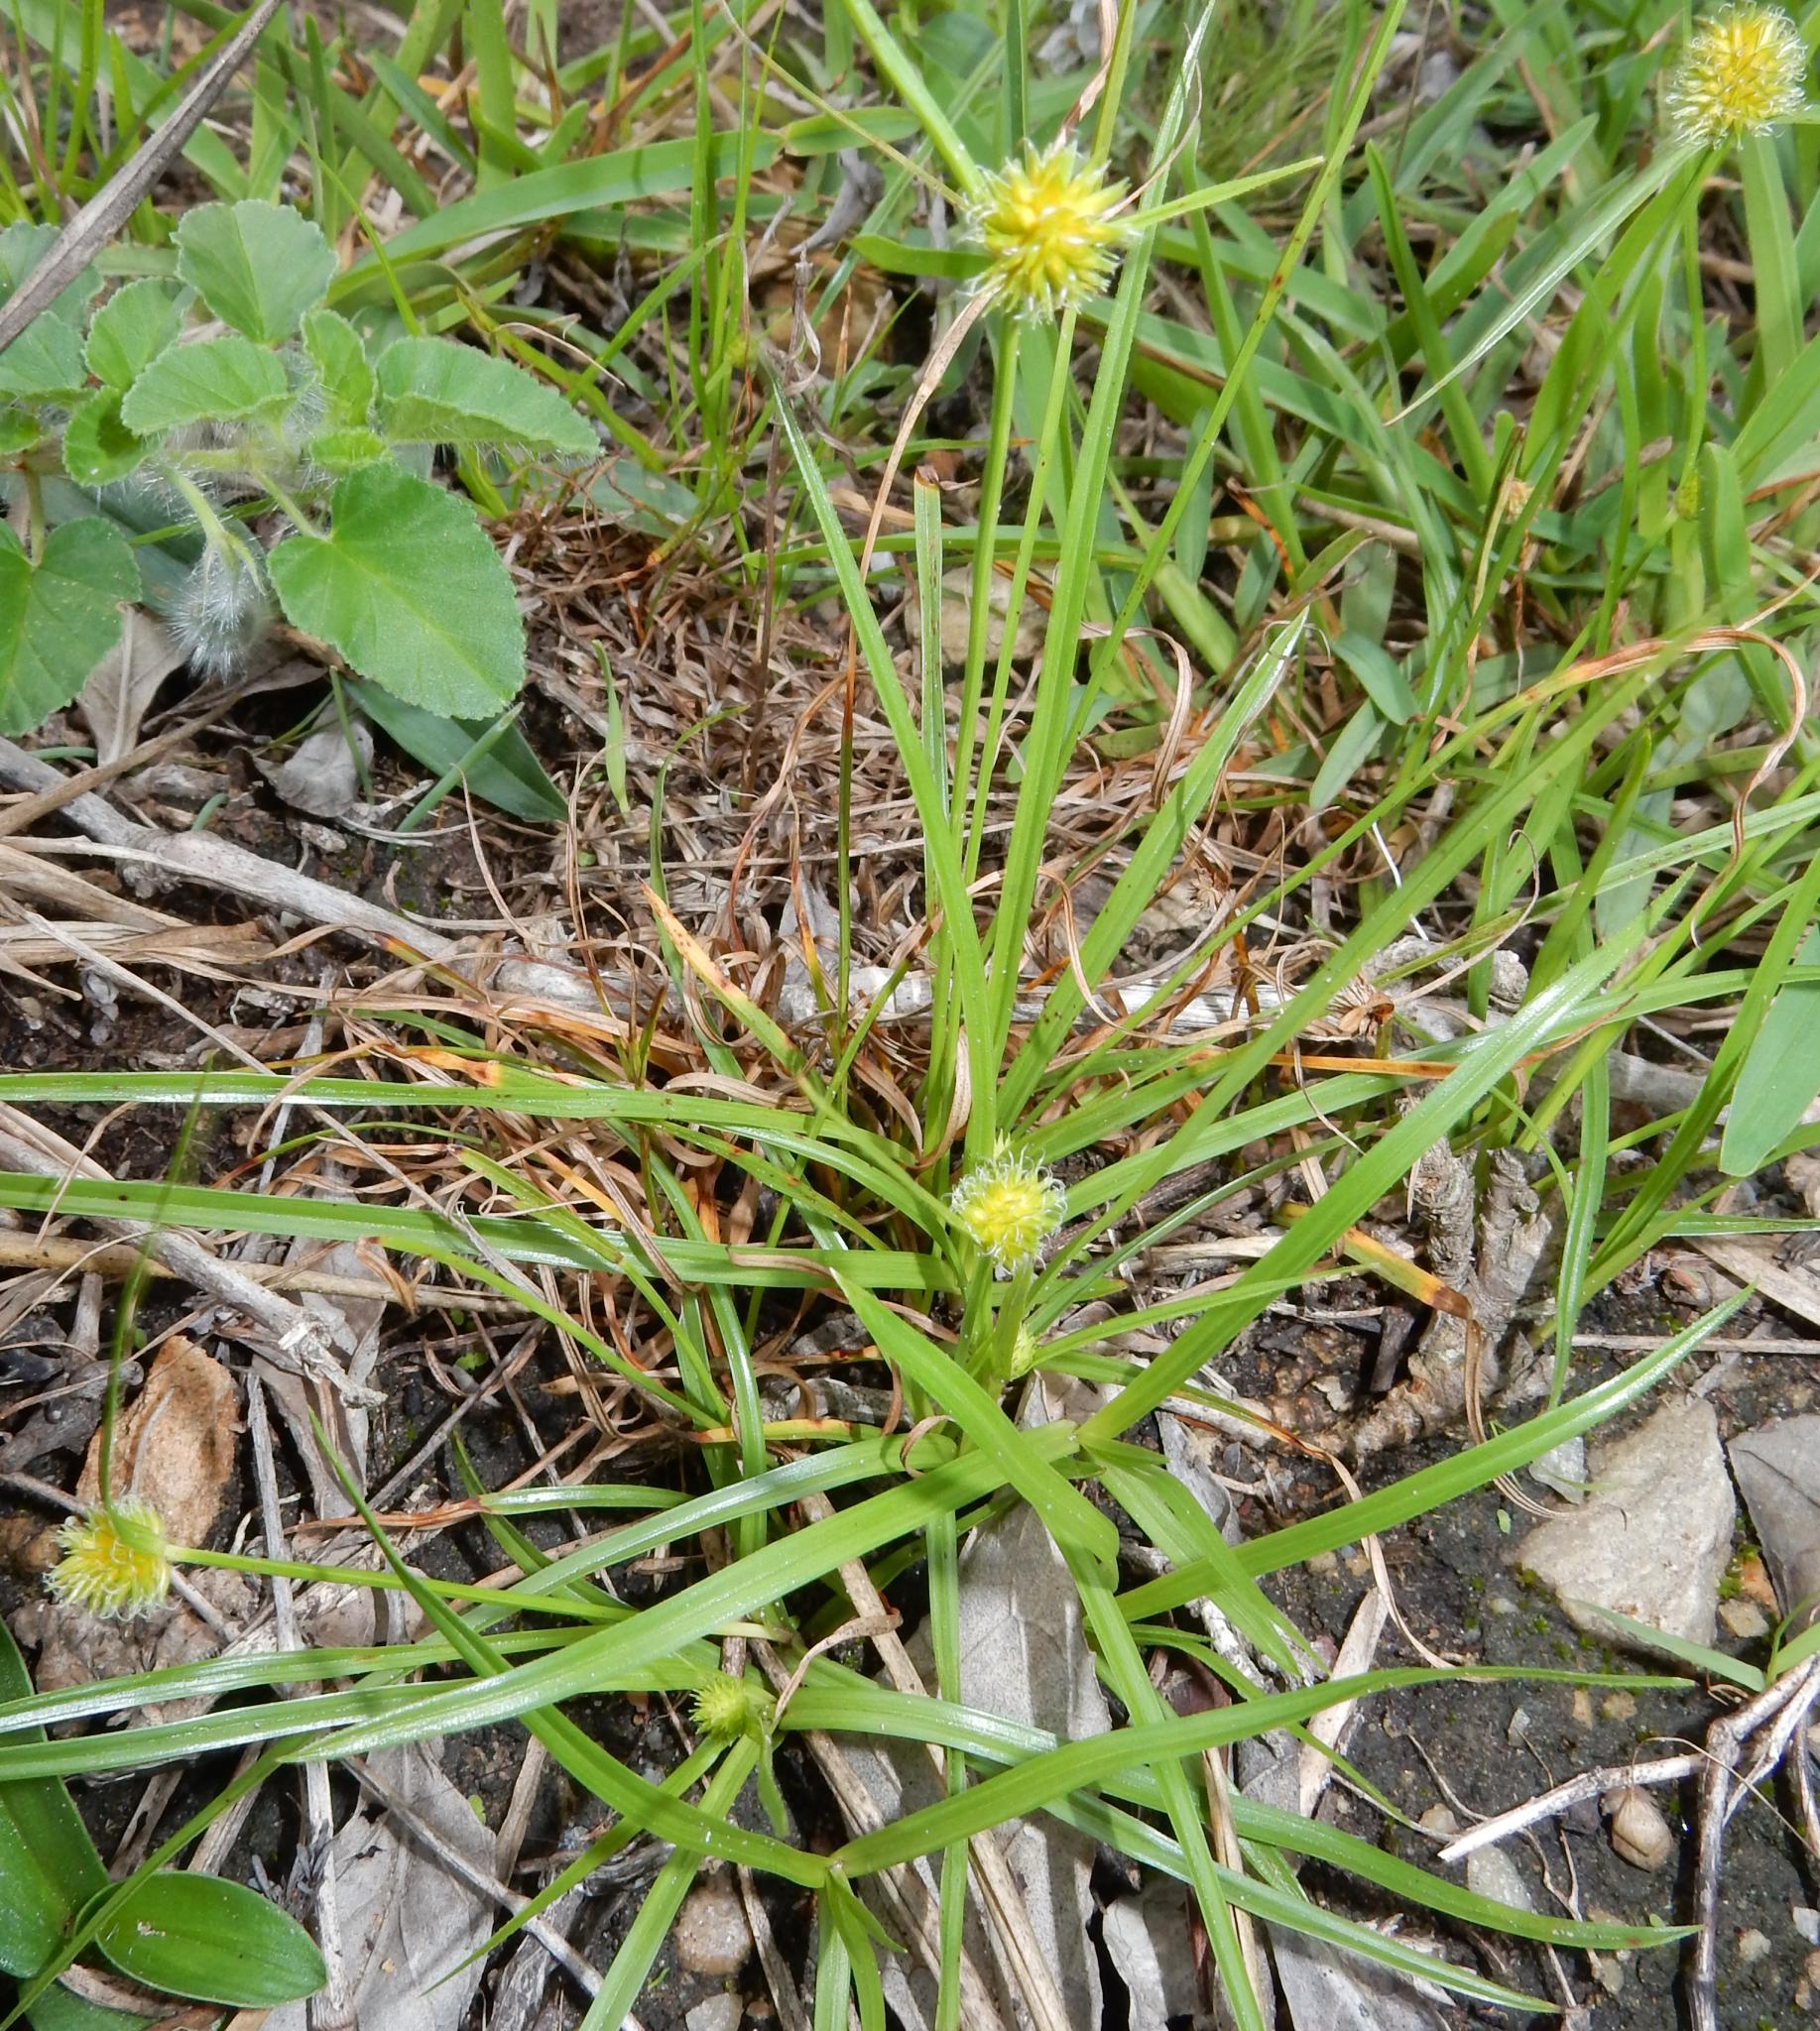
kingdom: Plantae
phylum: Tracheophyta
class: Liliopsida
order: Poales
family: Cyperaceae
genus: Cyperus
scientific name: Cyperus alatus
